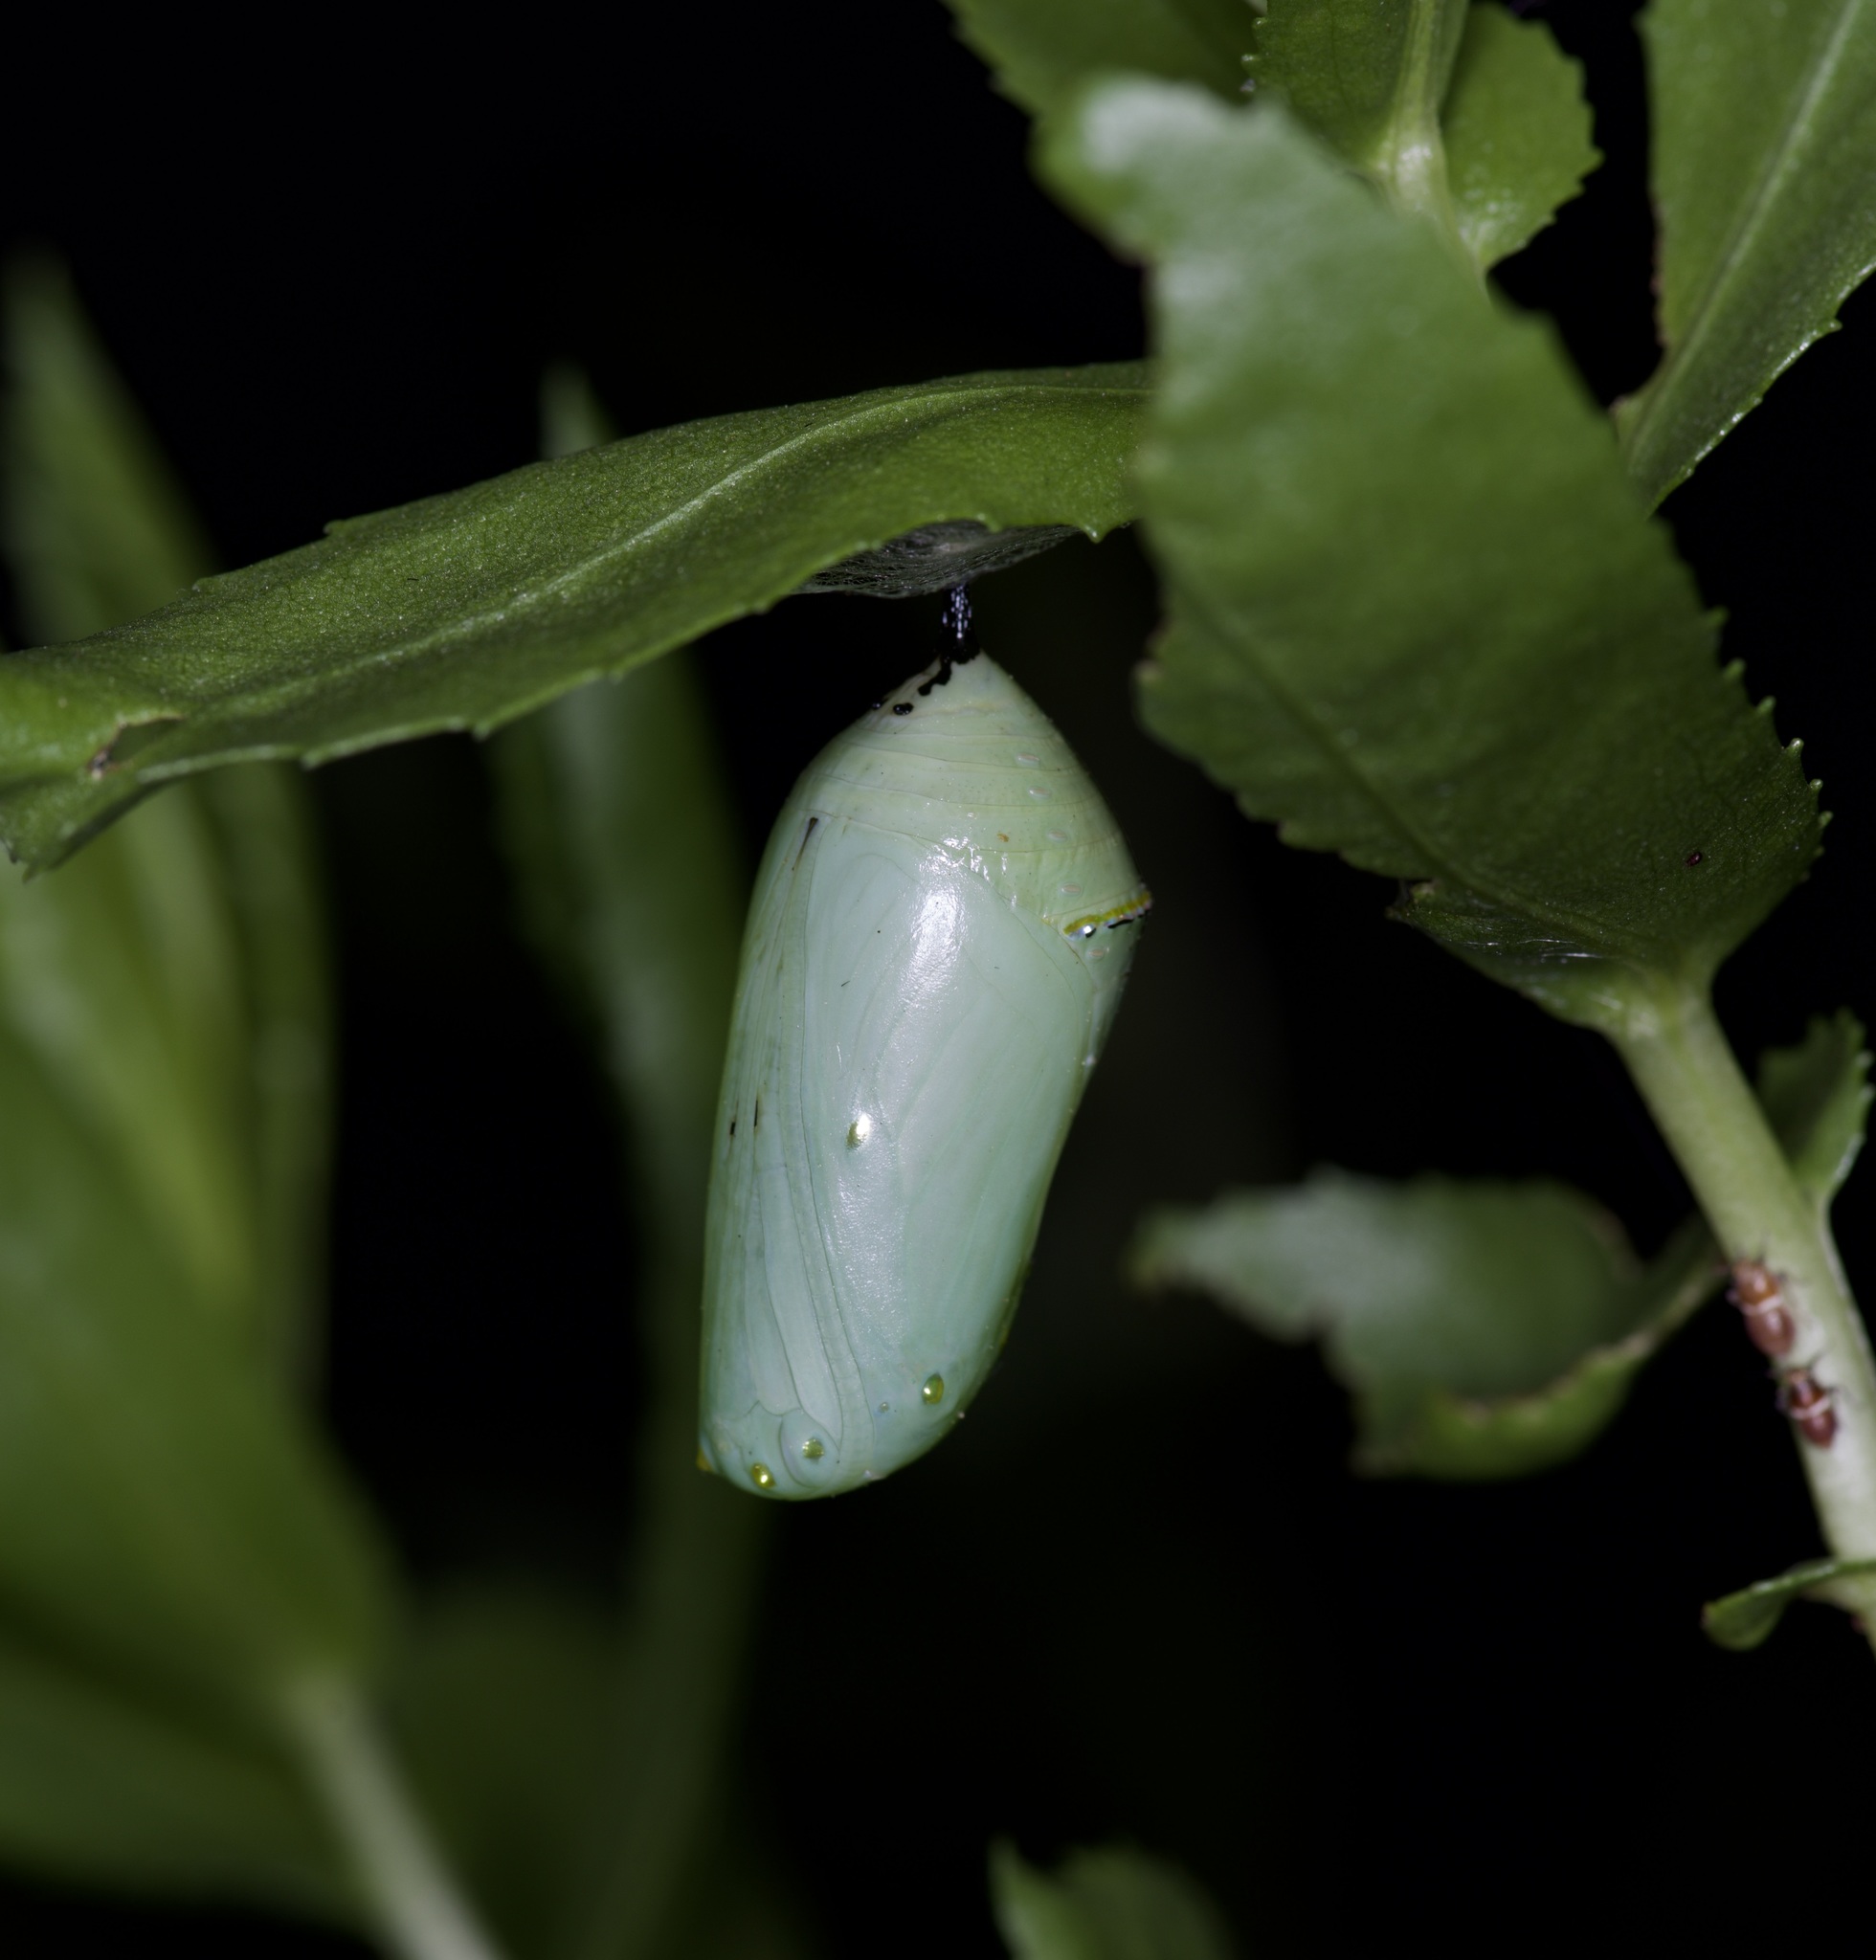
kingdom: Animalia
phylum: Arthropoda
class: Insecta
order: Lepidoptera
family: Nymphalidae
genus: Danaus
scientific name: Danaus plexippus
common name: Monarch
